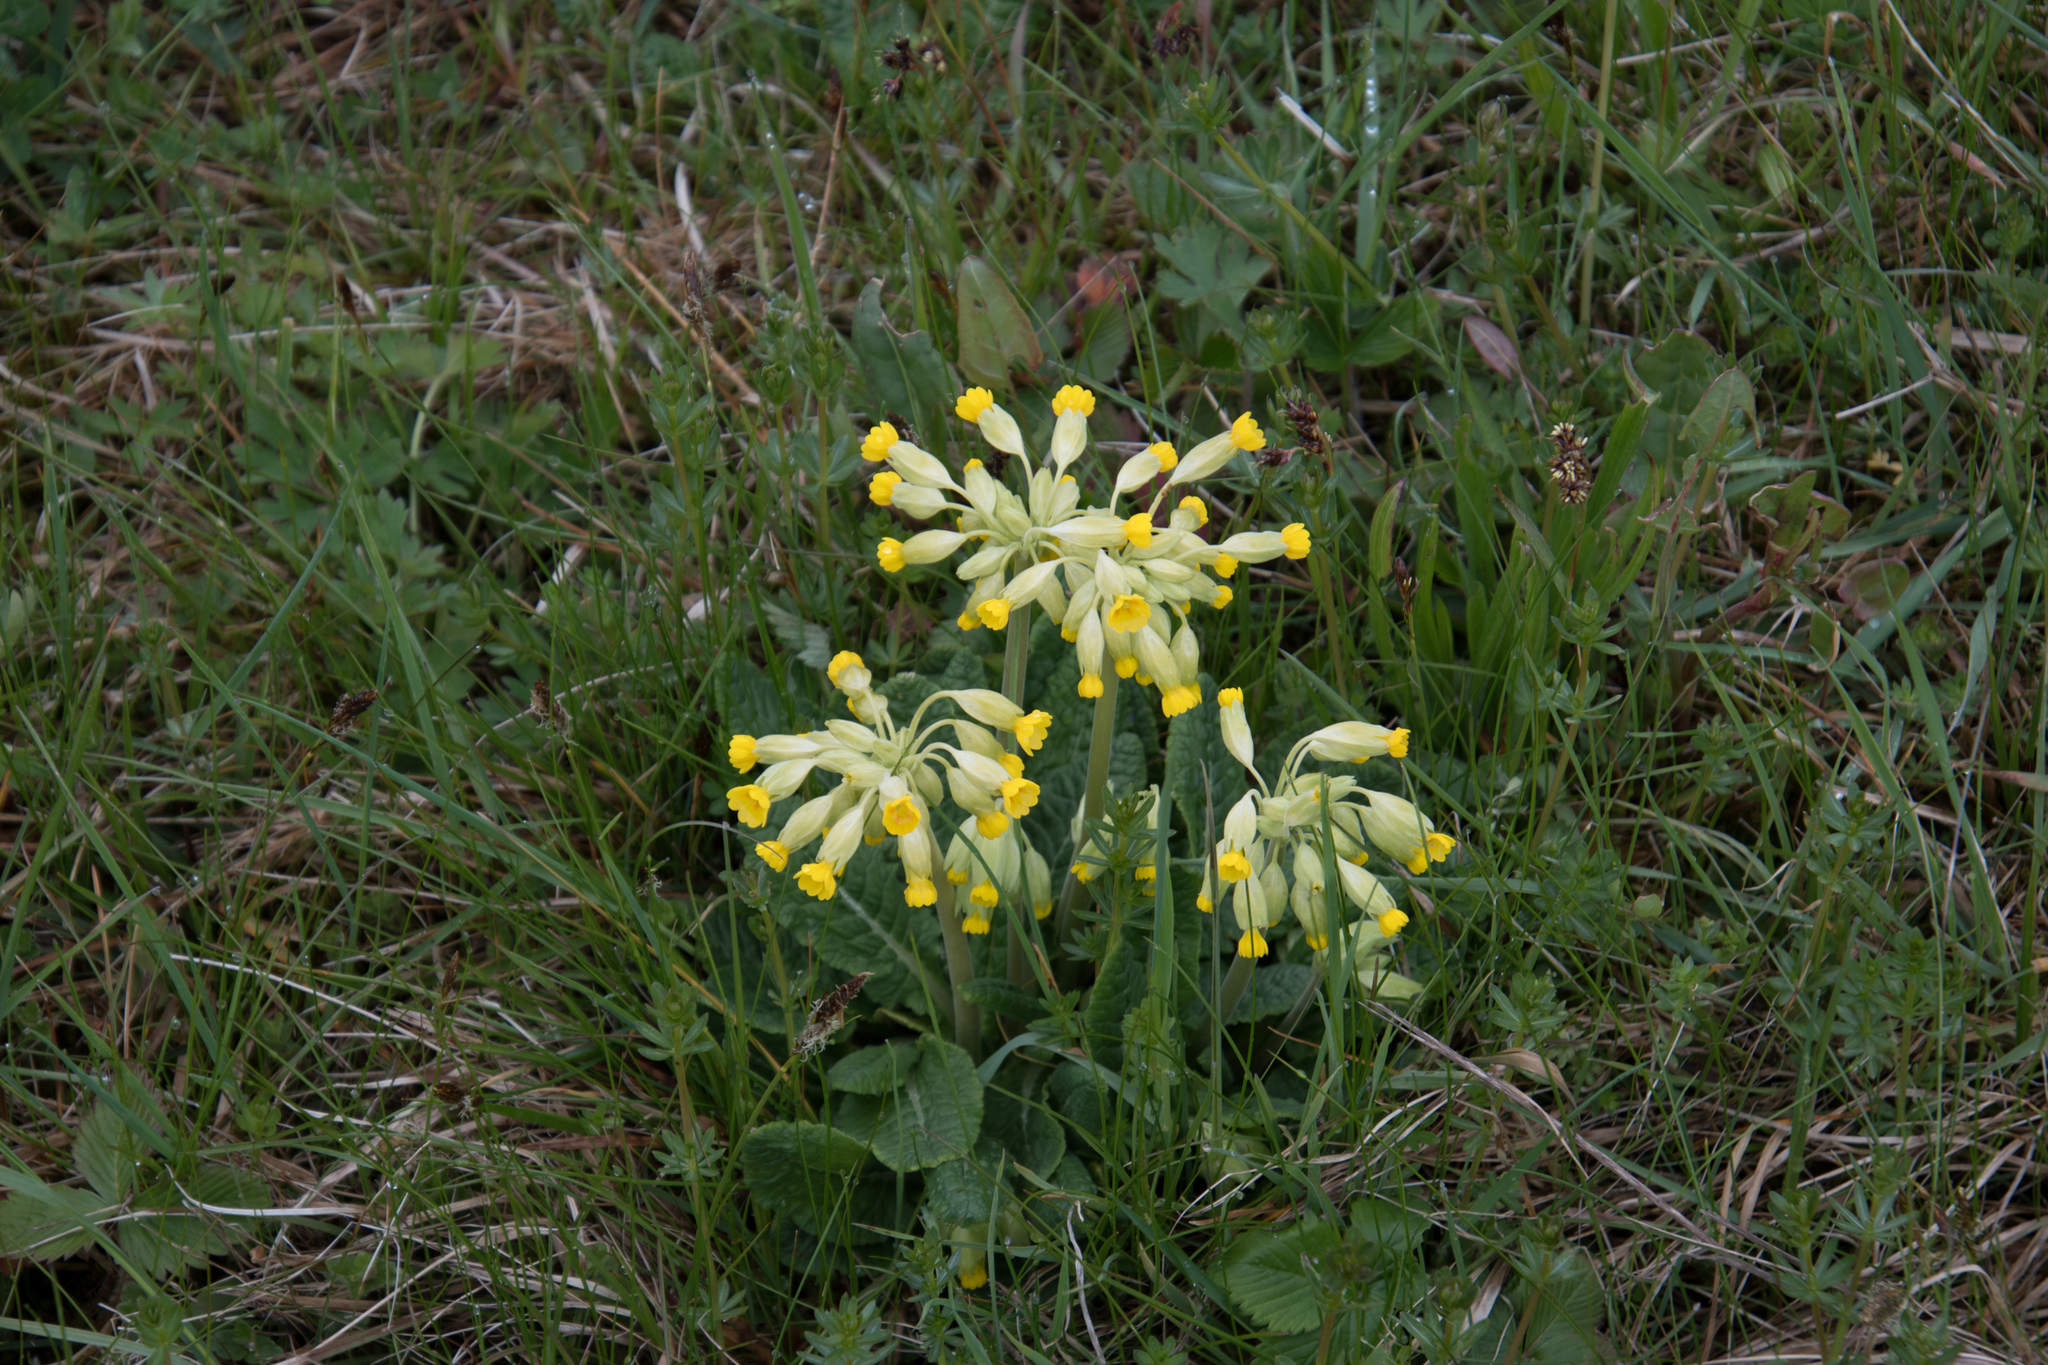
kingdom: Plantae
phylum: Tracheophyta
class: Magnoliopsida
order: Ericales
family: Primulaceae
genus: Primula
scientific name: Primula veris
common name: Cowslip
